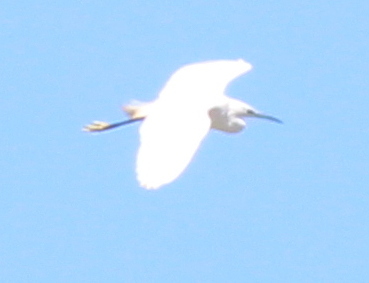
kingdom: Animalia
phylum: Chordata
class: Aves
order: Pelecaniformes
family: Ardeidae
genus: Egretta
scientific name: Egretta garzetta
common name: Little egret
